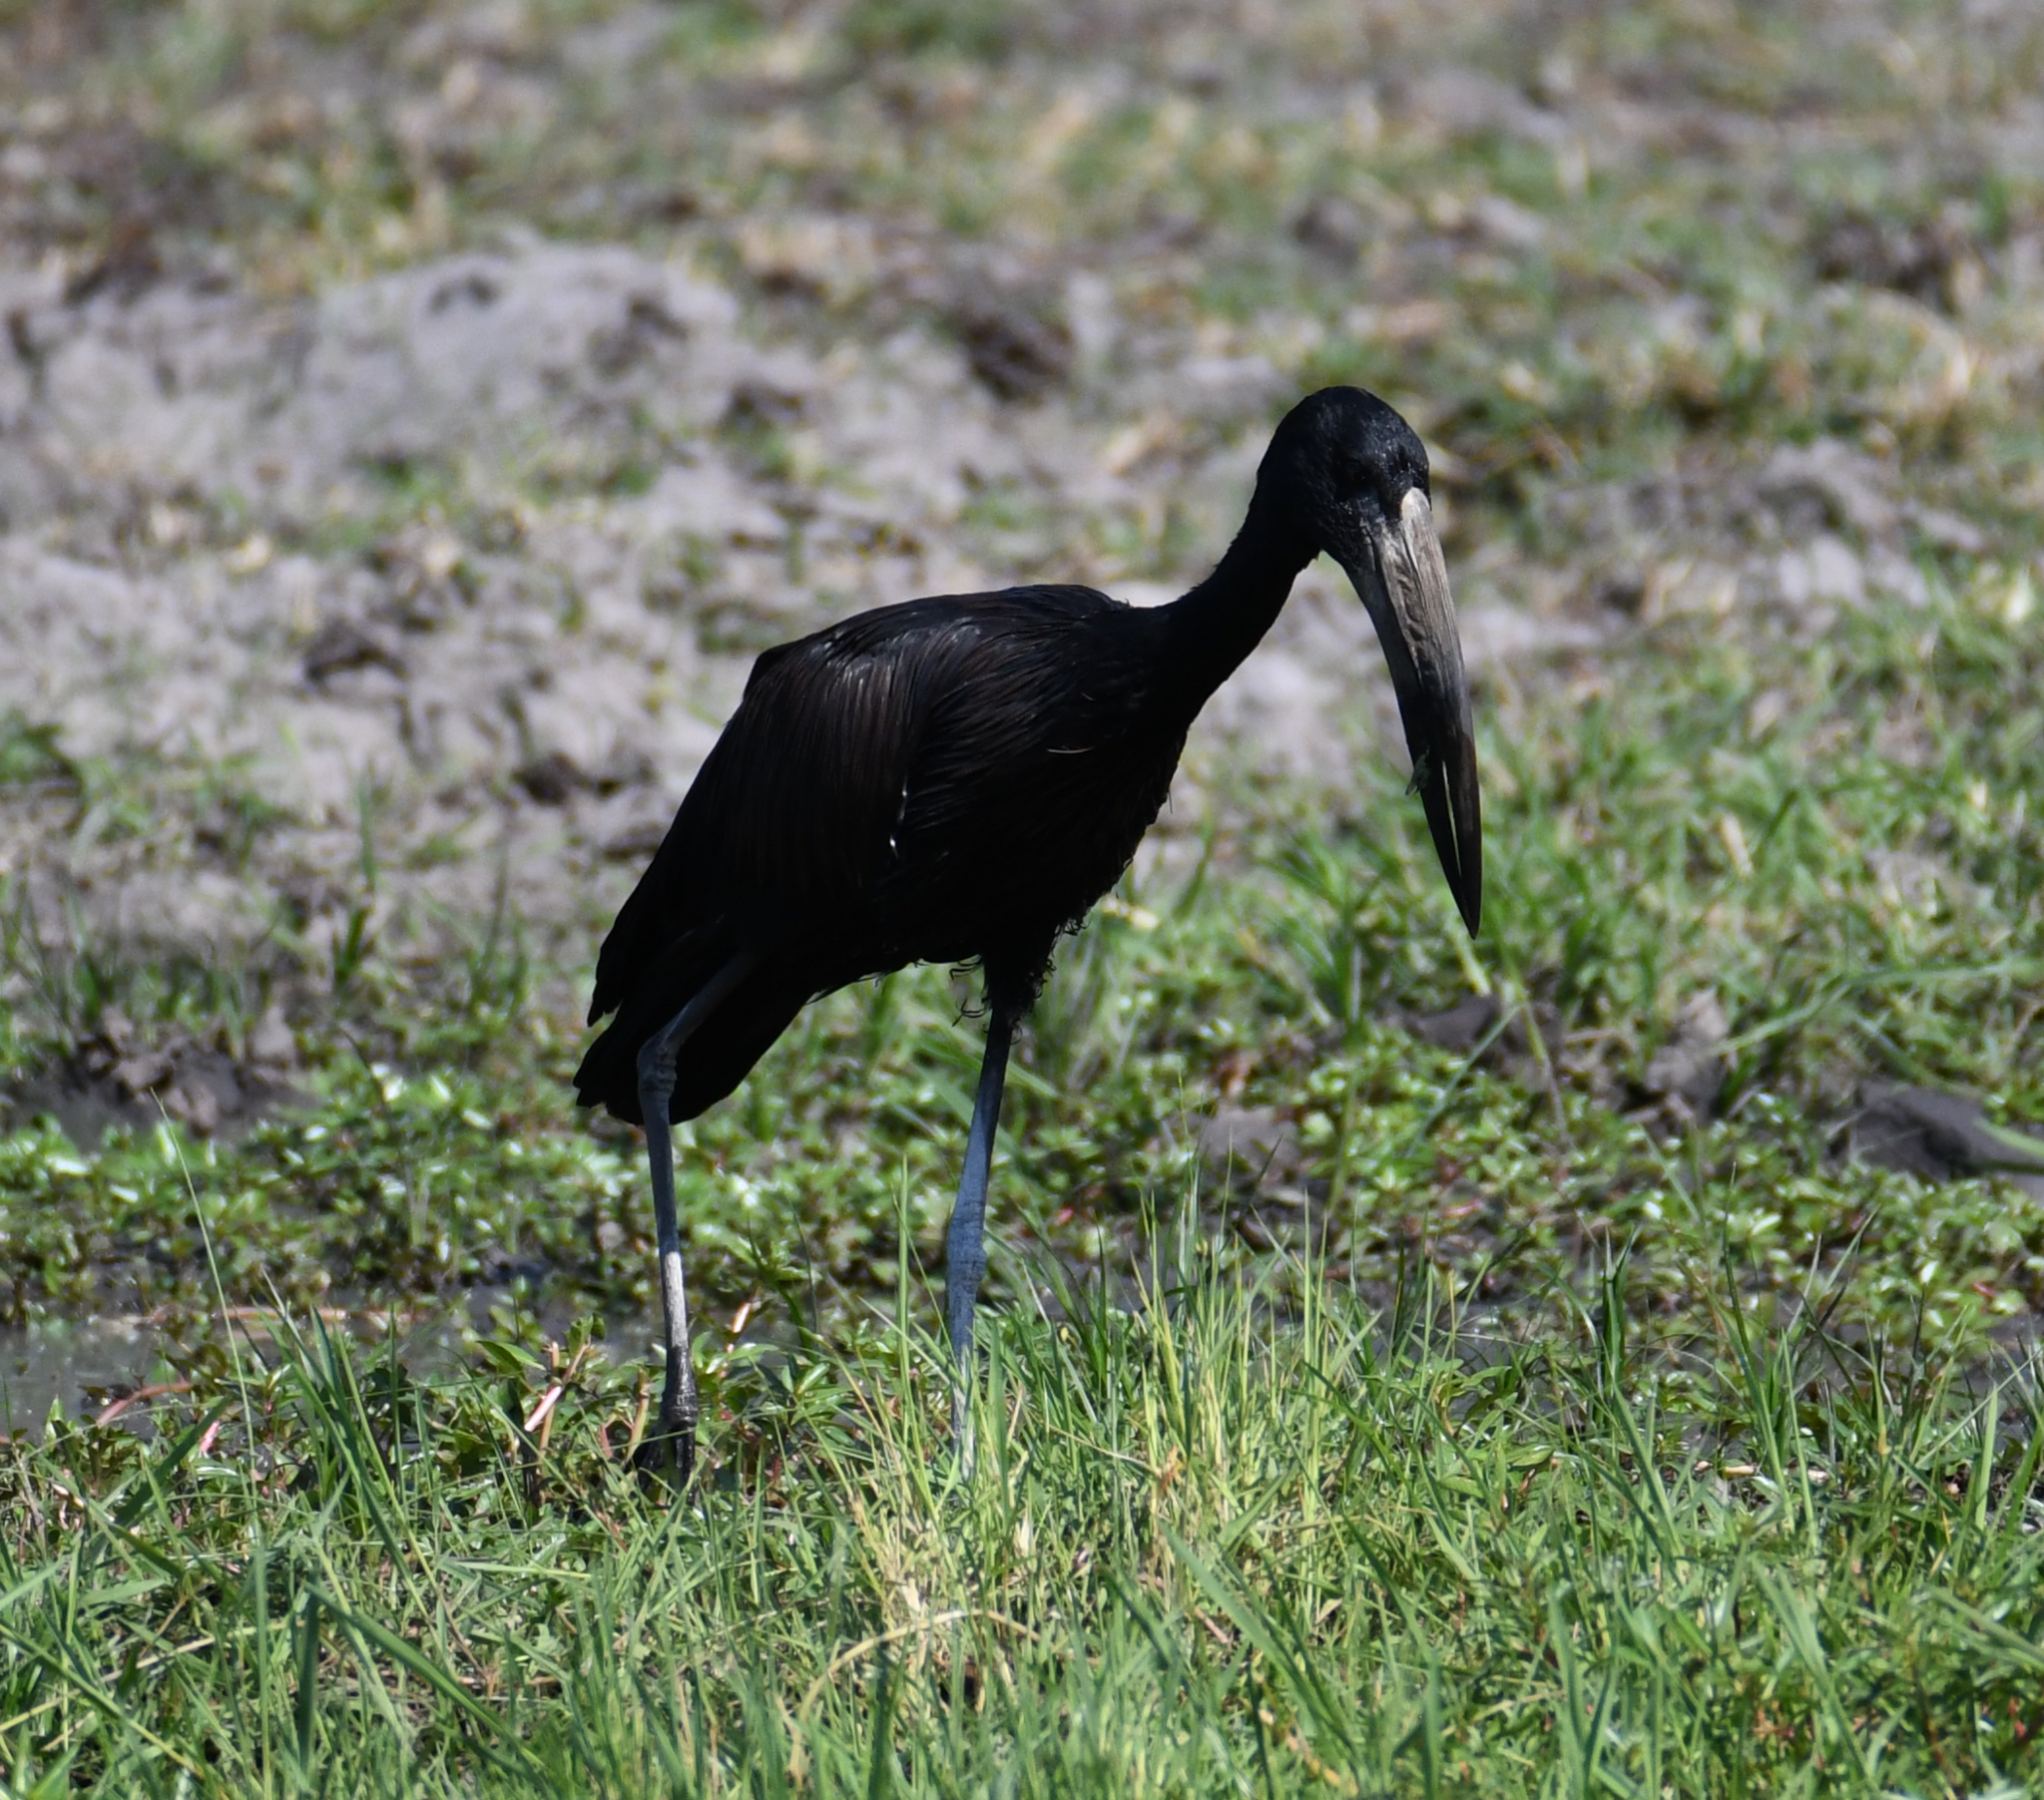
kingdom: Animalia
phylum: Chordata
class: Aves
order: Ciconiiformes
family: Ciconiidae
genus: Anastomus
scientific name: Anastomus lamelligerus
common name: African openbill
